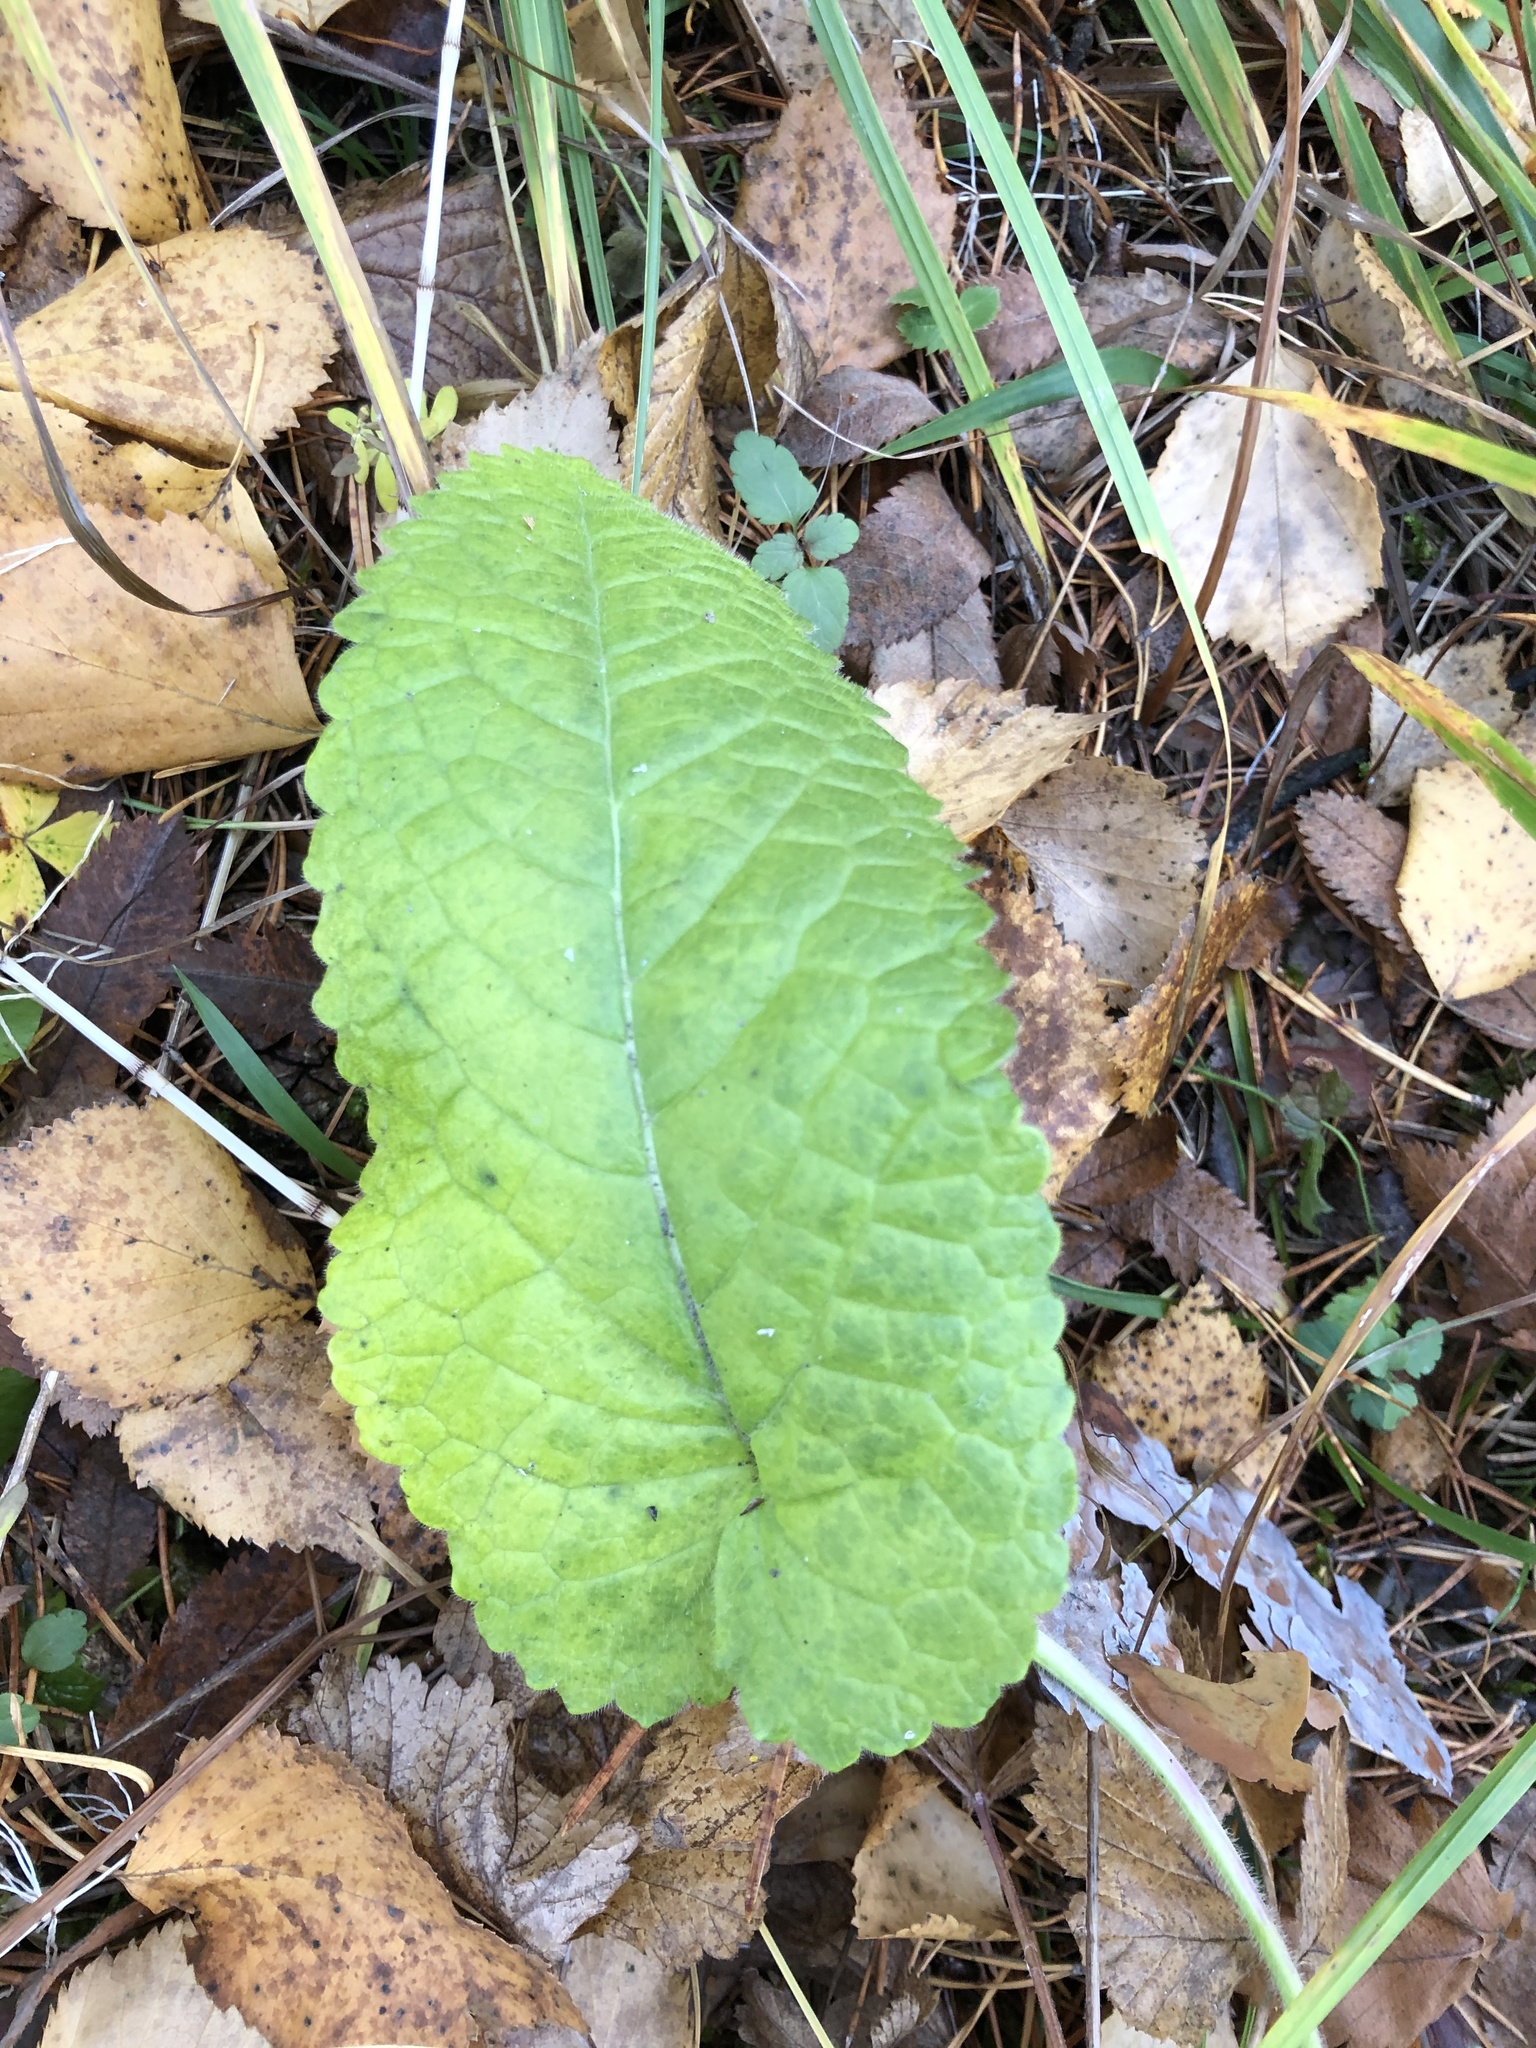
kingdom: Plantae
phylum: Tracheophyta
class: Magnoliopsida
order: Lamiales
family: Lamiaceae
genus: Betonica
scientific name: Betonica officinalis
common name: Bishop's-wort
